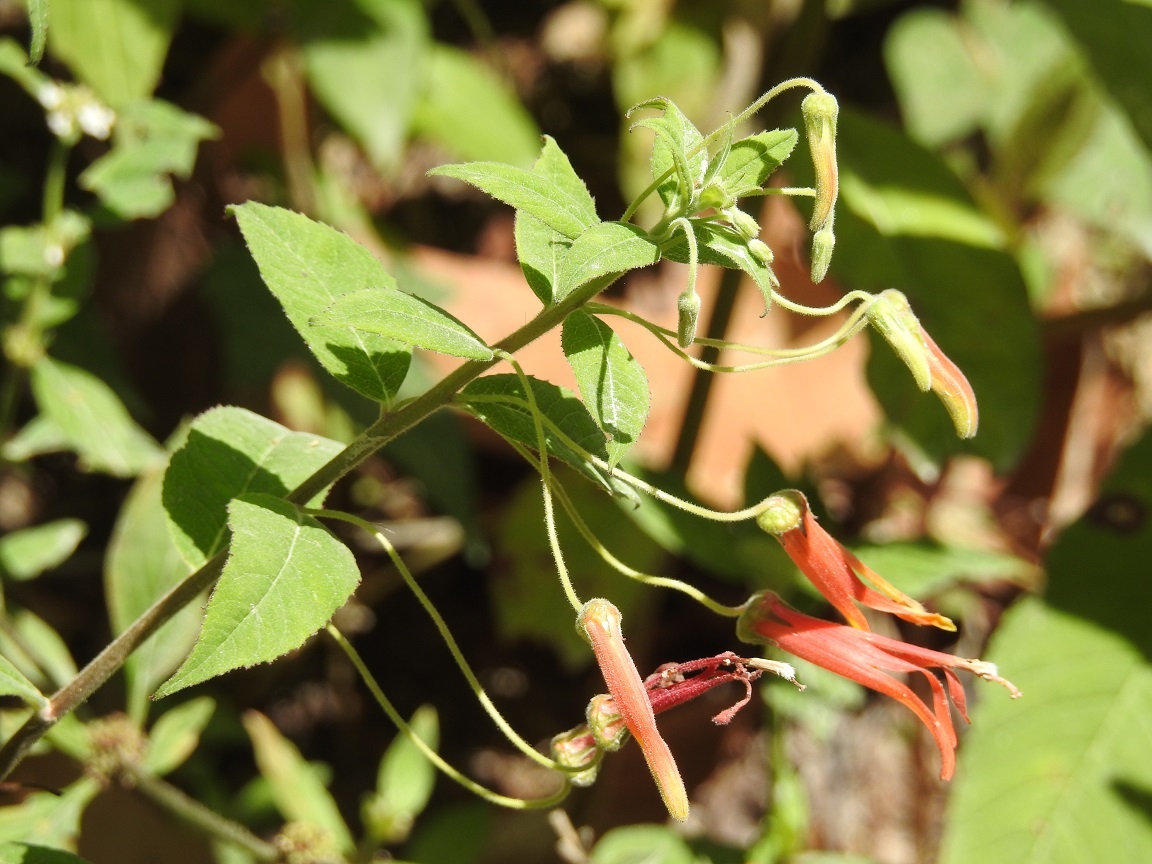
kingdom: Plantae
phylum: Tracheophyta
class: Magnoliopsida
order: Asterales
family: Campanulaceae
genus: Lobelia
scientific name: Lobelia laxiflora
